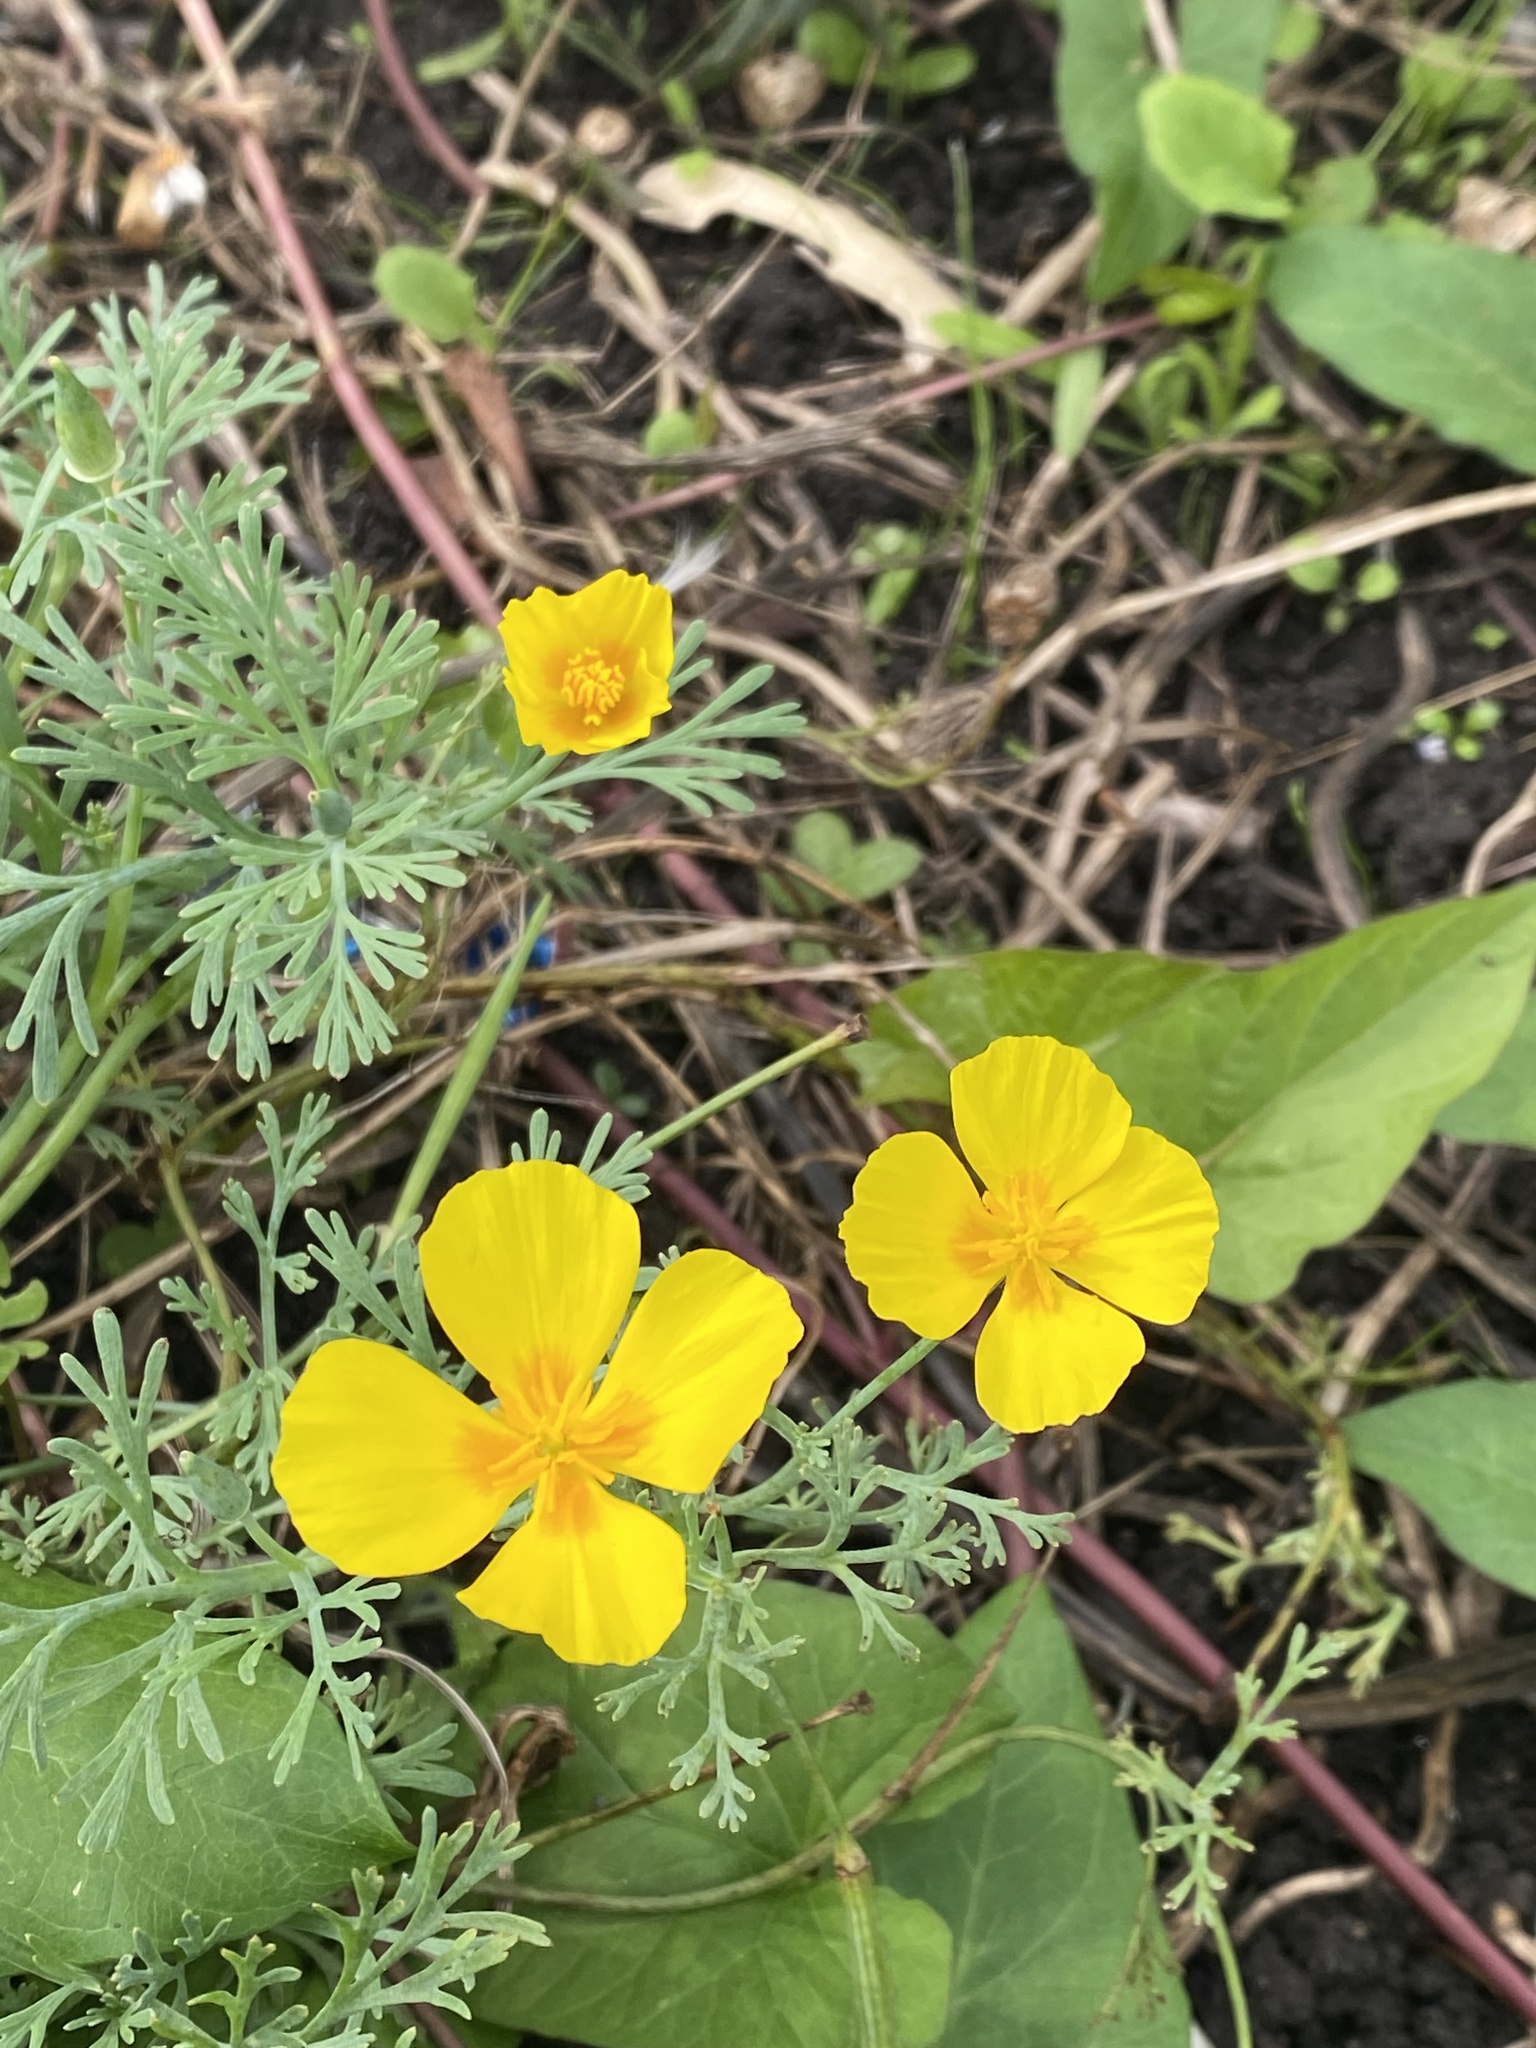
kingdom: Plantae
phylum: Tracheophyta
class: Magnoliopsida
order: Ranunculales
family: Papaveraceae
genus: Eschscholzia
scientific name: Eschscholzia californica
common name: California poppy
